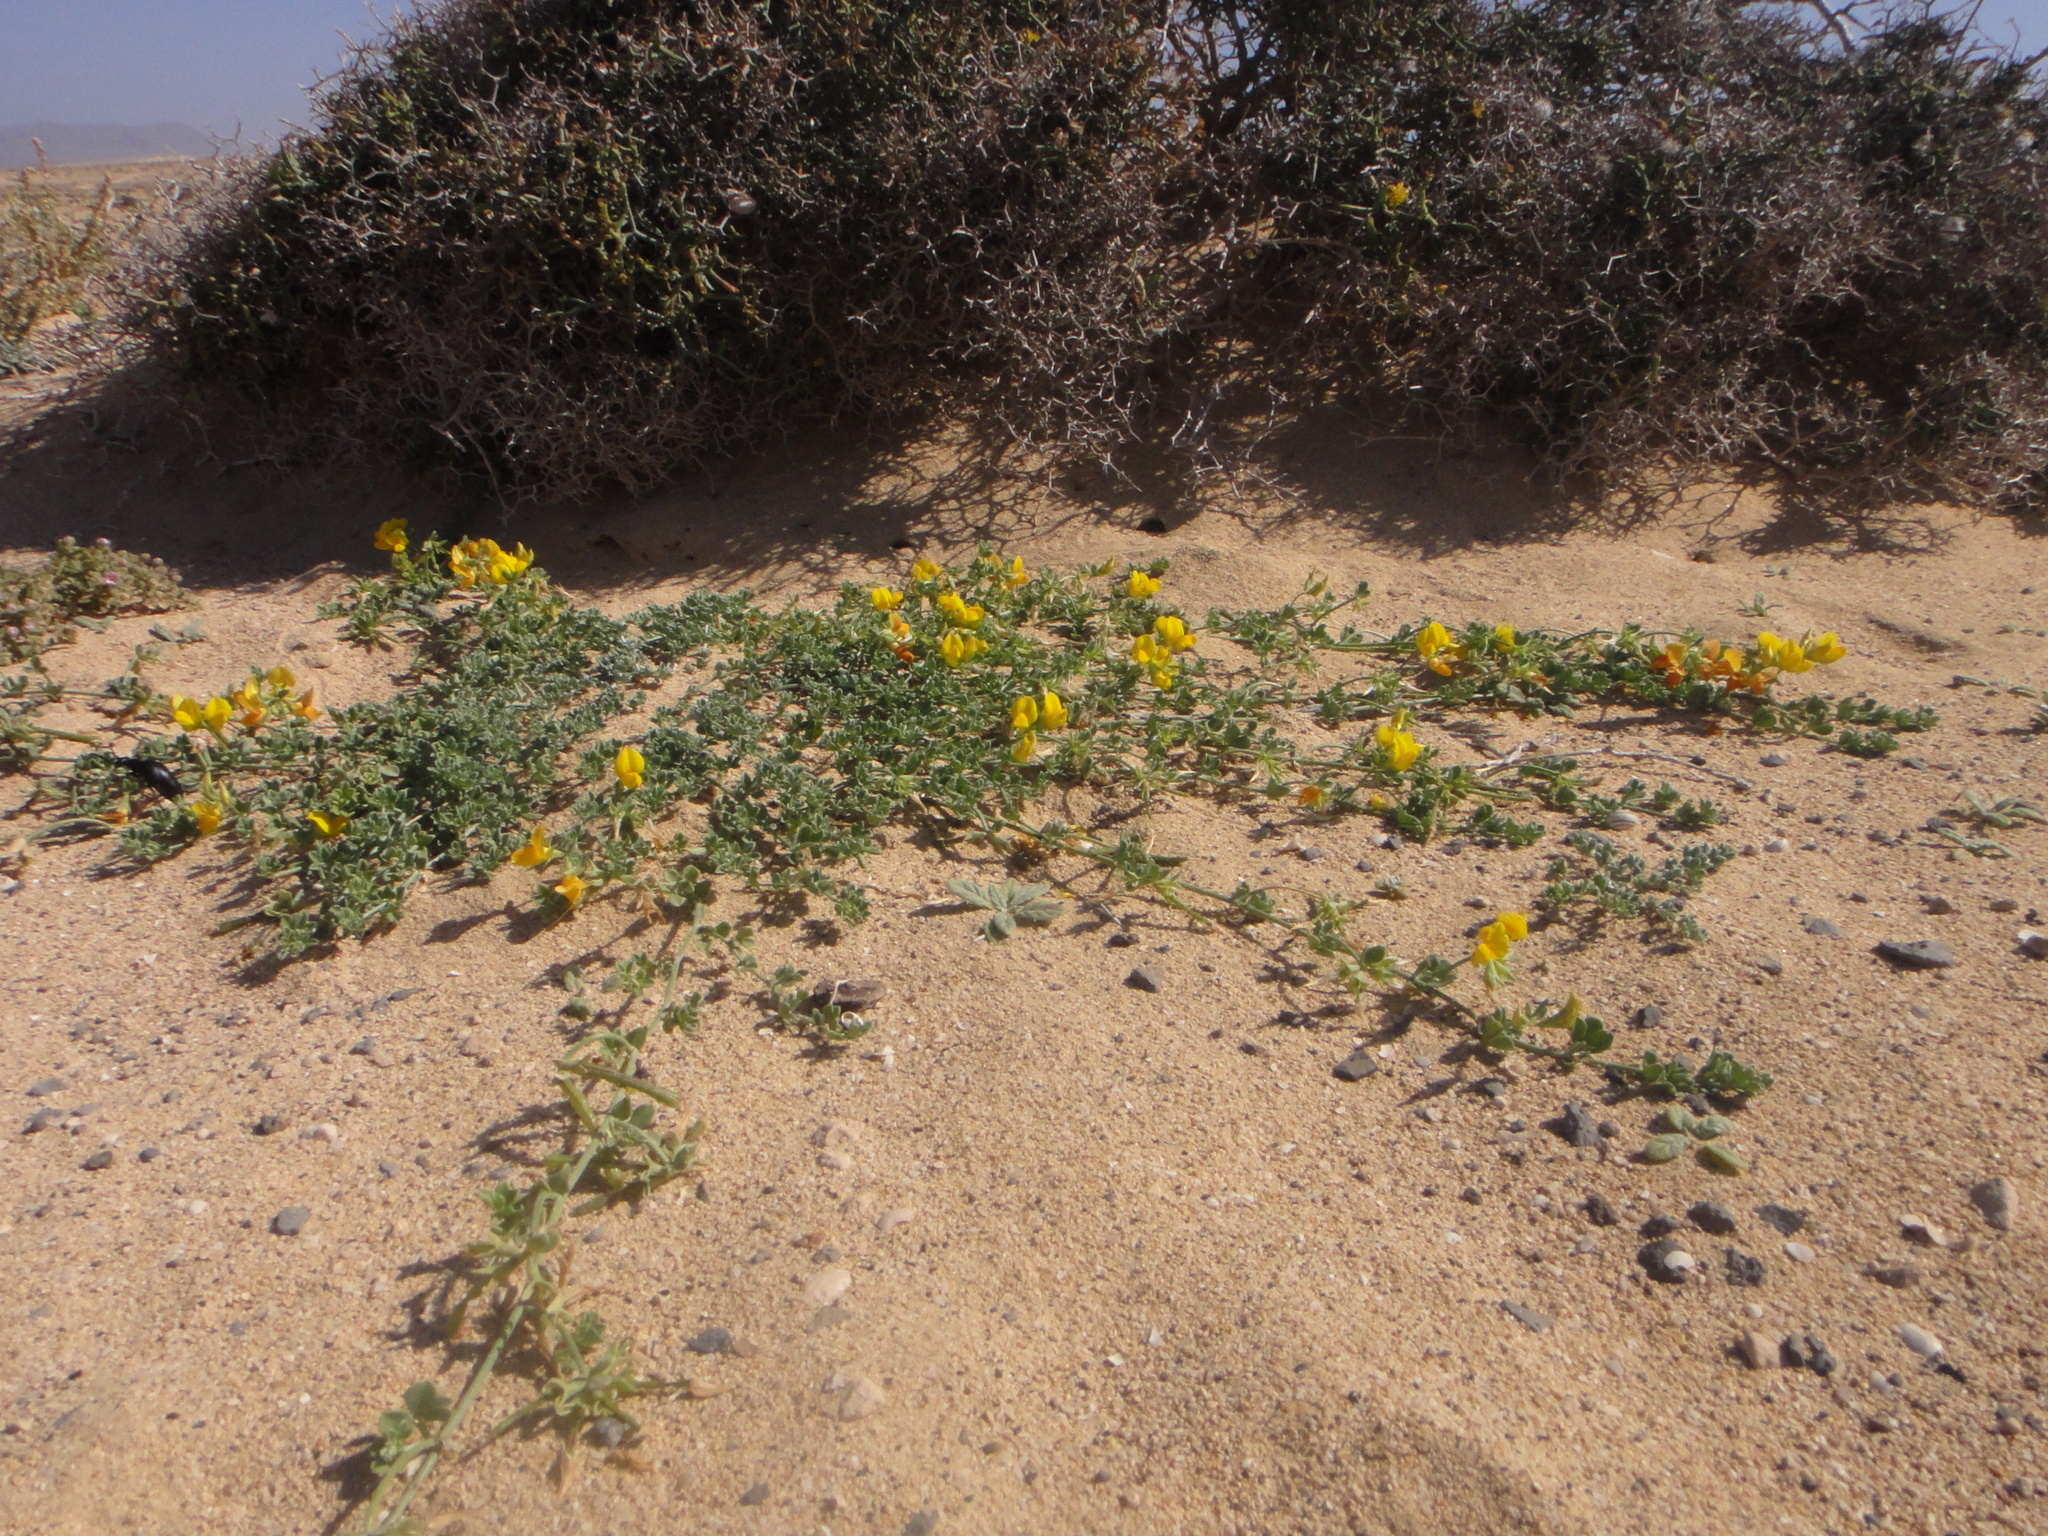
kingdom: Plantae
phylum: Tracheophyta
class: Magnoliopsida
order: Fabales
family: Fabaceae
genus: Lotus
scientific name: Lotus lancerottensis
